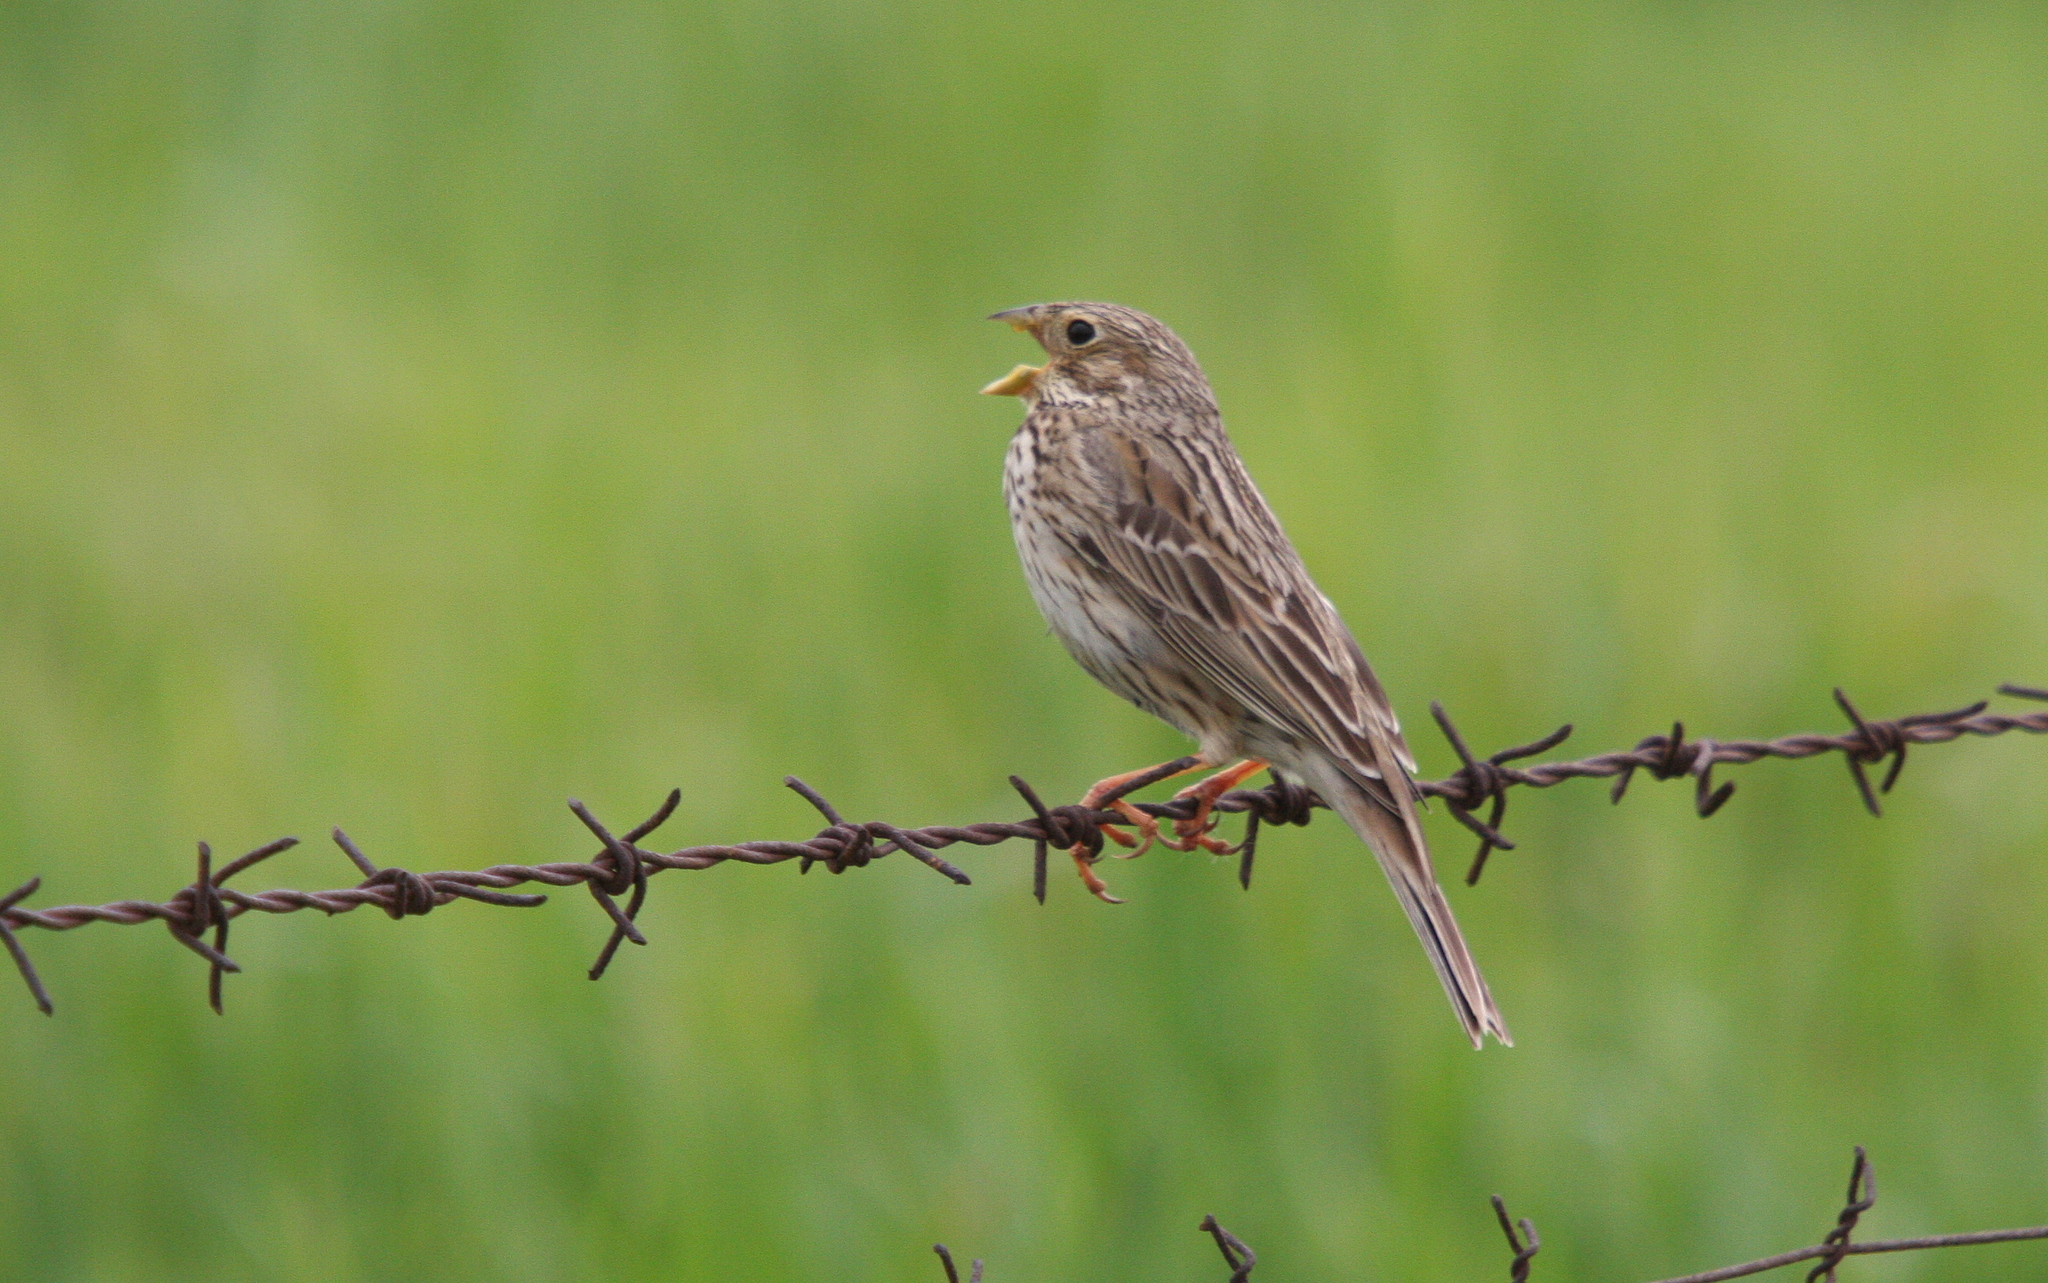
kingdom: Animalia
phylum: Chordata
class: Aves
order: Passeriformes
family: Emberizidae
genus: Emberiza
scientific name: Emberiza calandra
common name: Corn bunting
